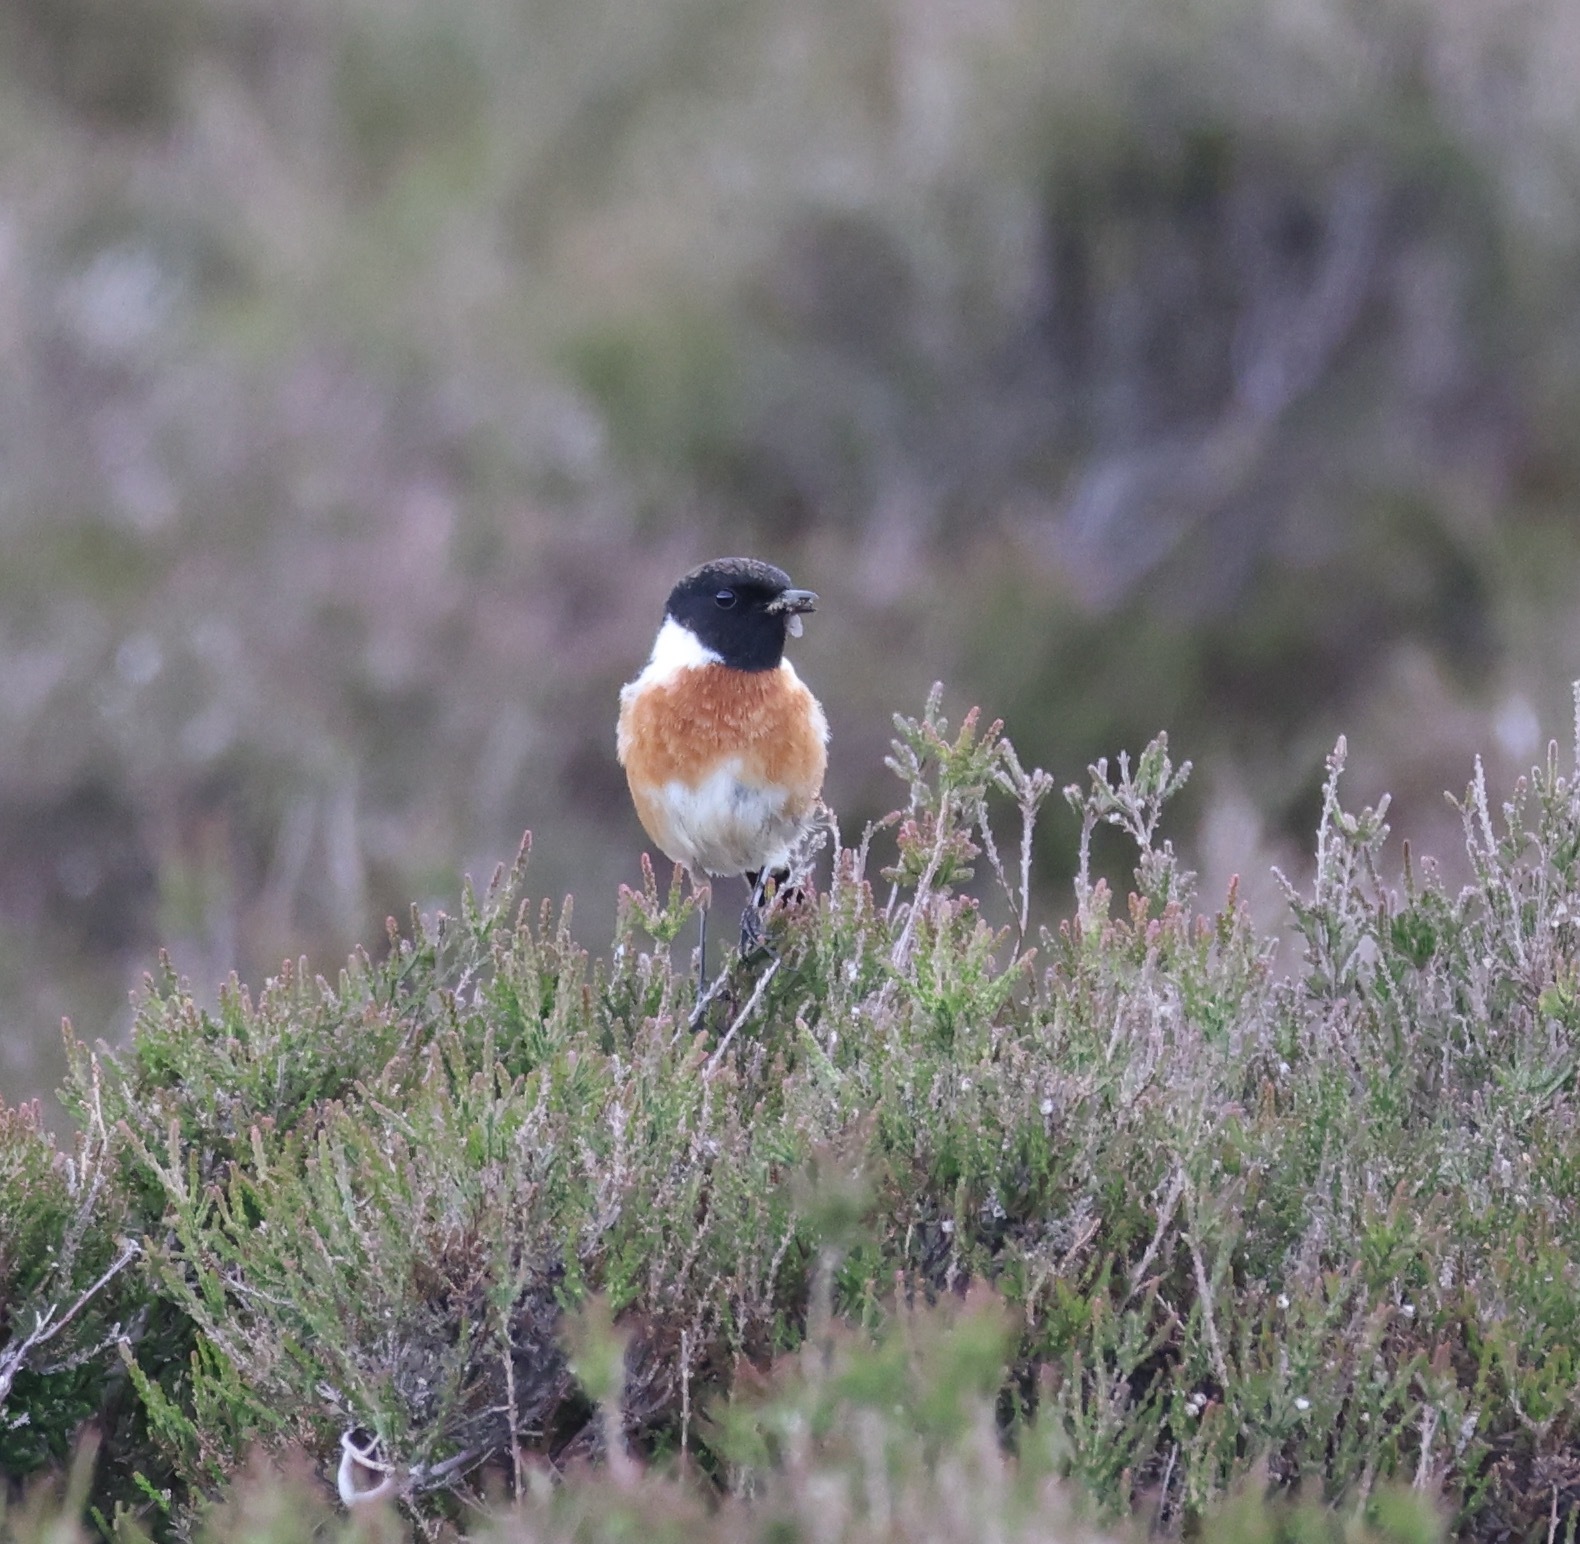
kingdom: Animalia
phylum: Chordata
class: Aves
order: Passeriformes
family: Muscicapidae
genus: Saxicola
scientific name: Saxicola rubicola
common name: European stonechat
